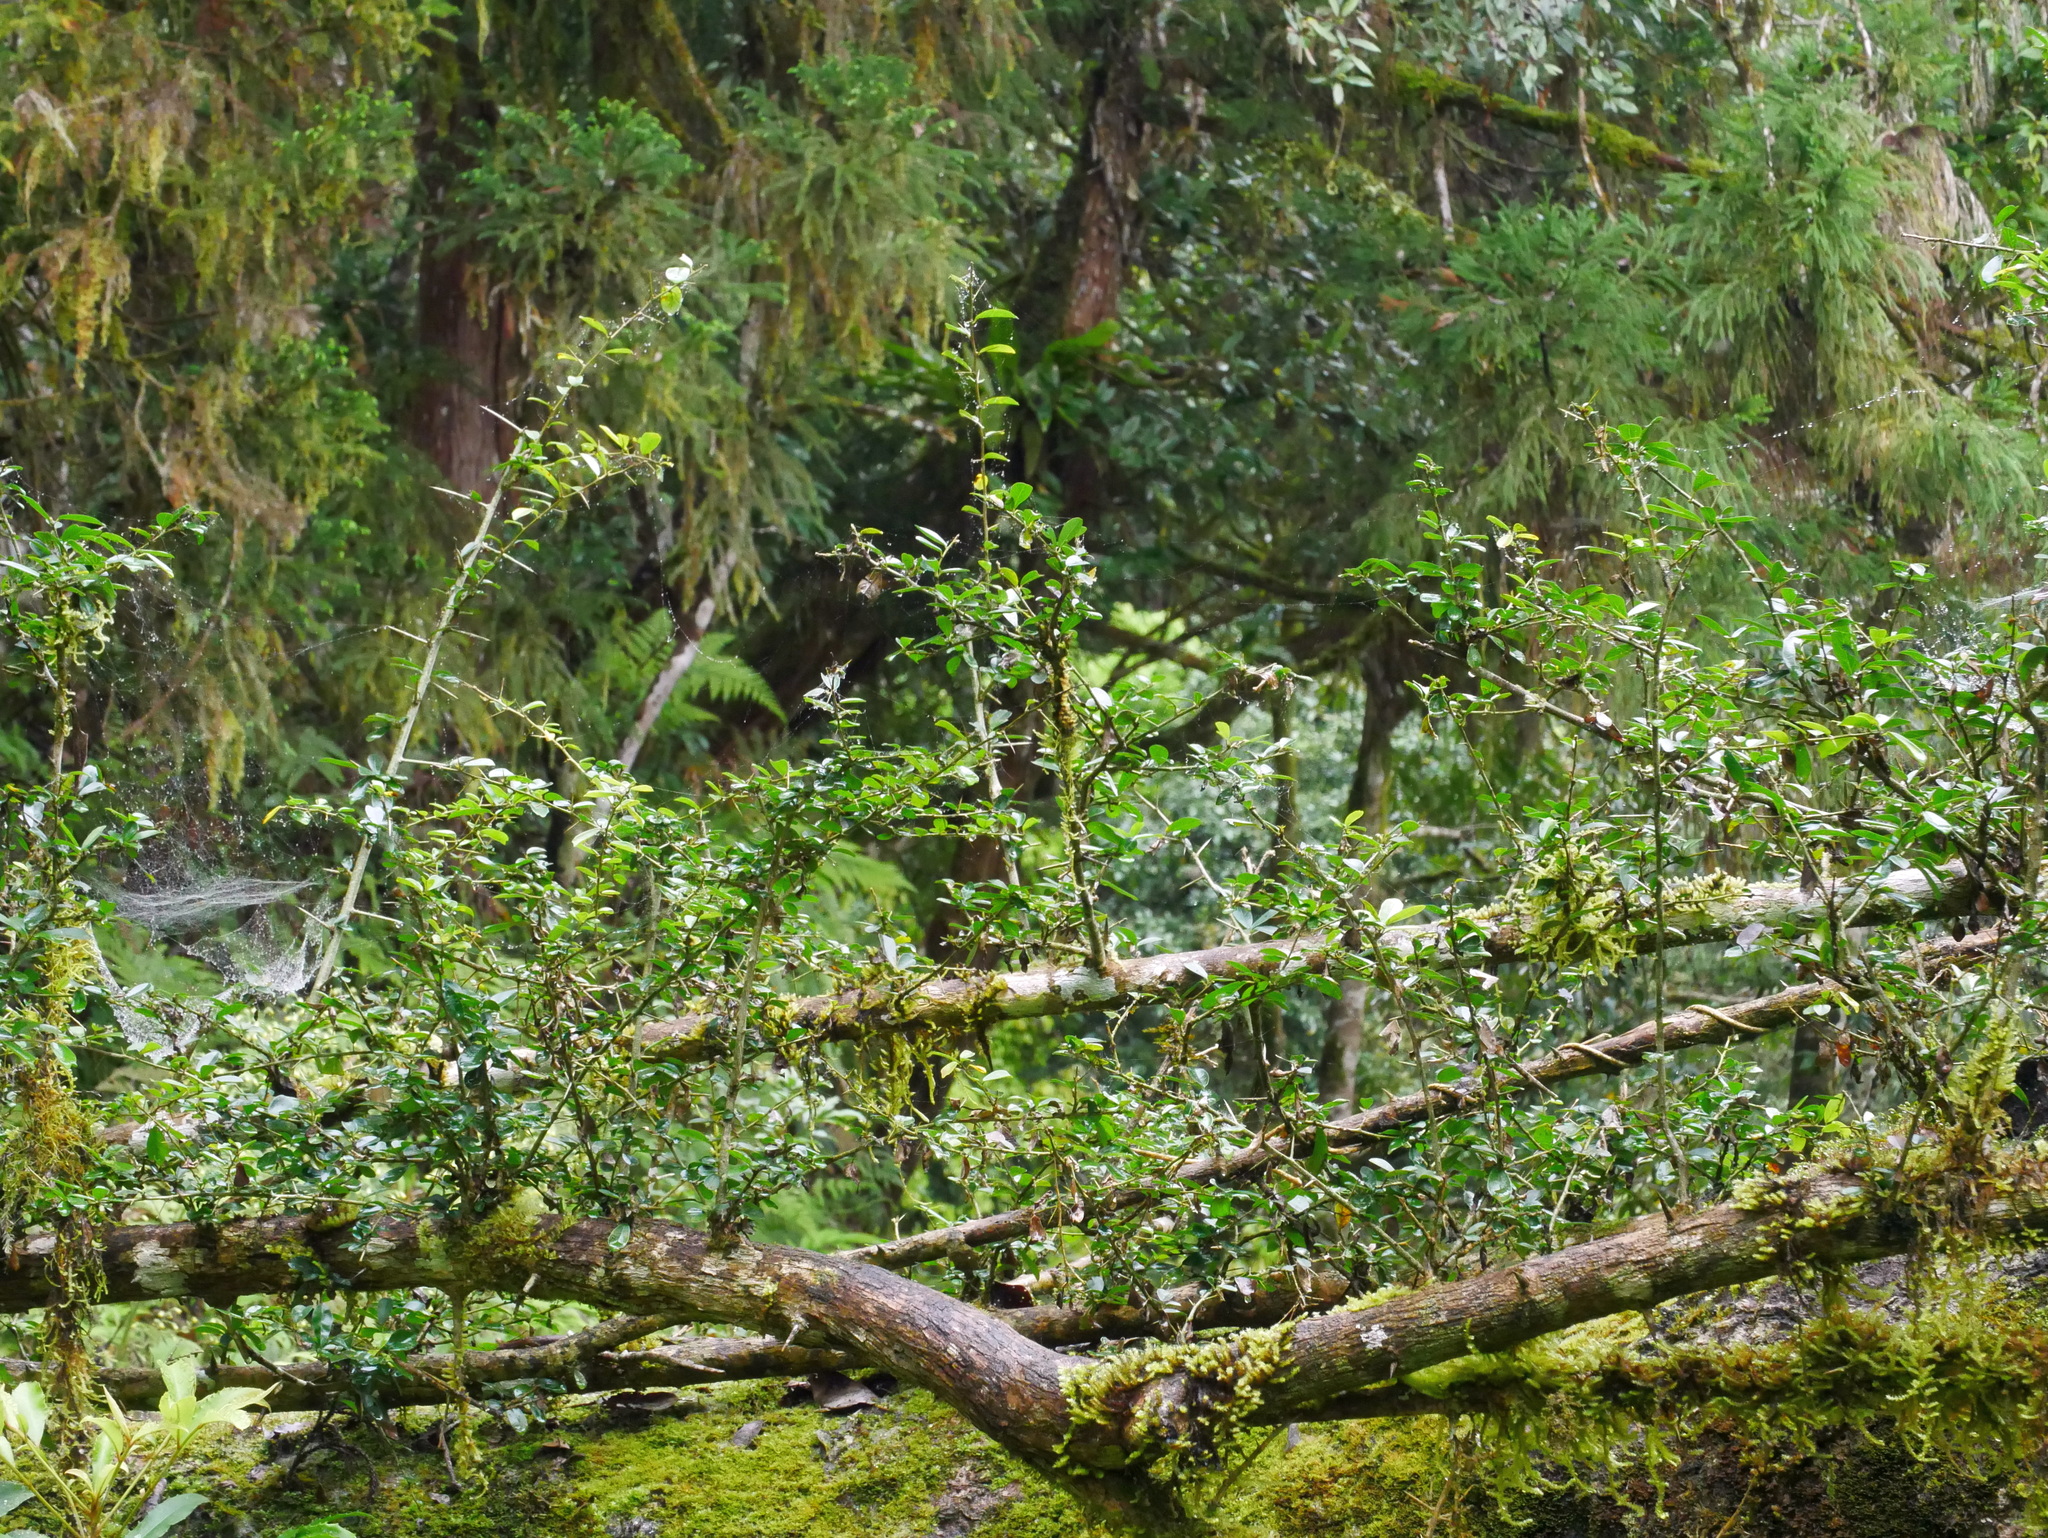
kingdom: Plantae
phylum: Tracheophyta
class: Magnoliopsida
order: Rosales
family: Moraceae
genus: Maclura
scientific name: Maclura cochinchinensis
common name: Cockspurthorn
